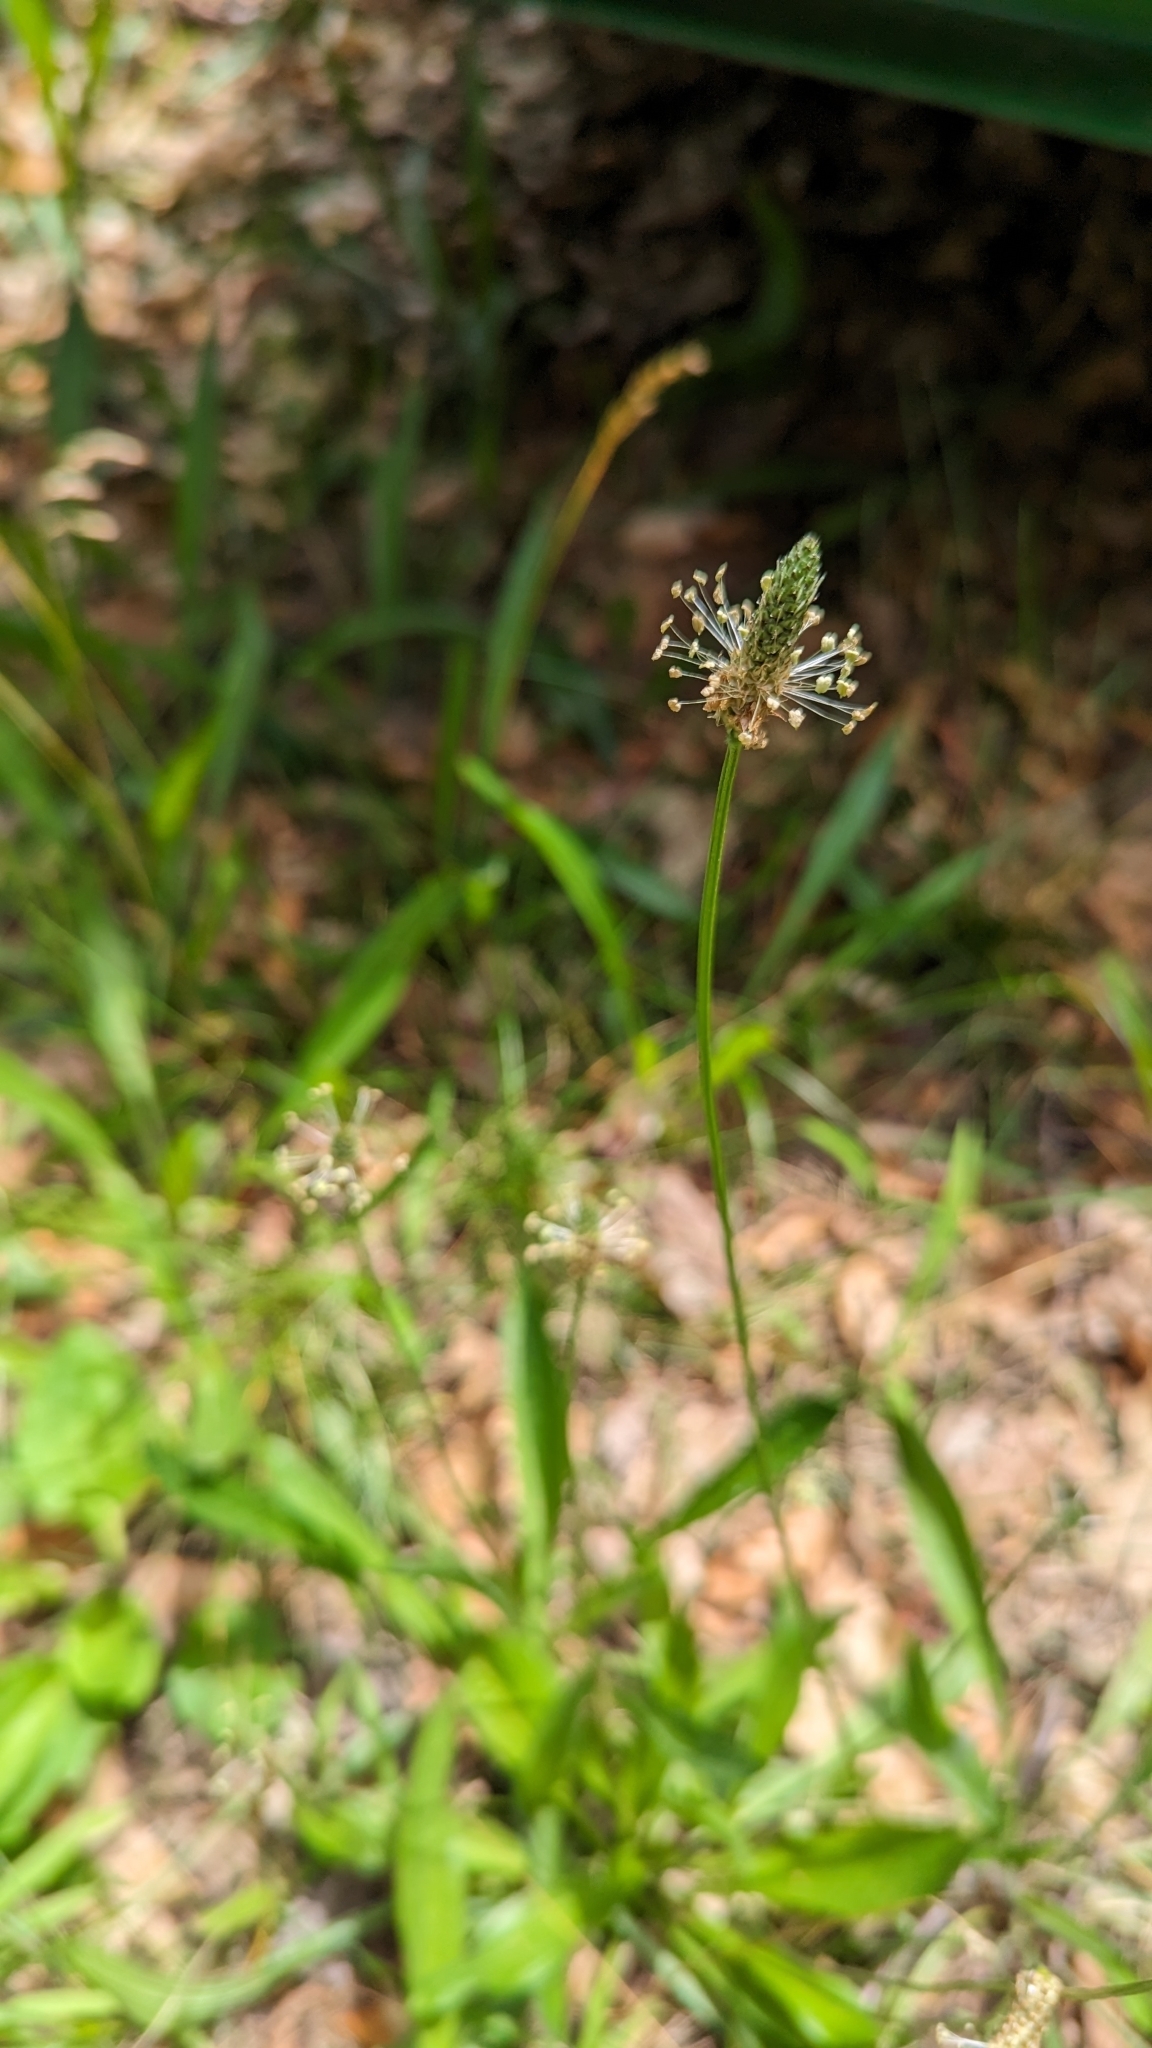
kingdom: Plantae
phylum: Tracheophyta
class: Magnoliopsida
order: Lamiales
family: Plantaginaceae
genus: Plantago
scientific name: Plantago lanceolata
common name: Ribwort plantain
